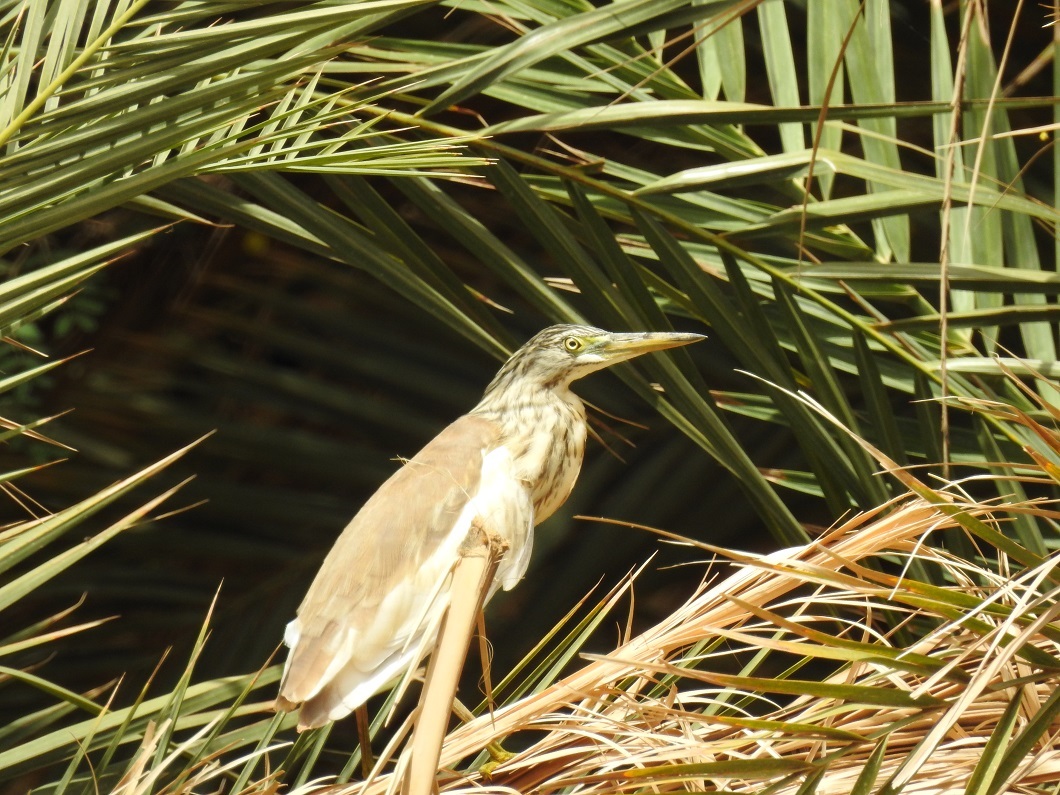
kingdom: Animalia
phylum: Chordata
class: Aves
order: Pelecaniformes
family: Ardeidae
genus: Ardeola
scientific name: Ardeola ralloides
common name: Squacco heron
